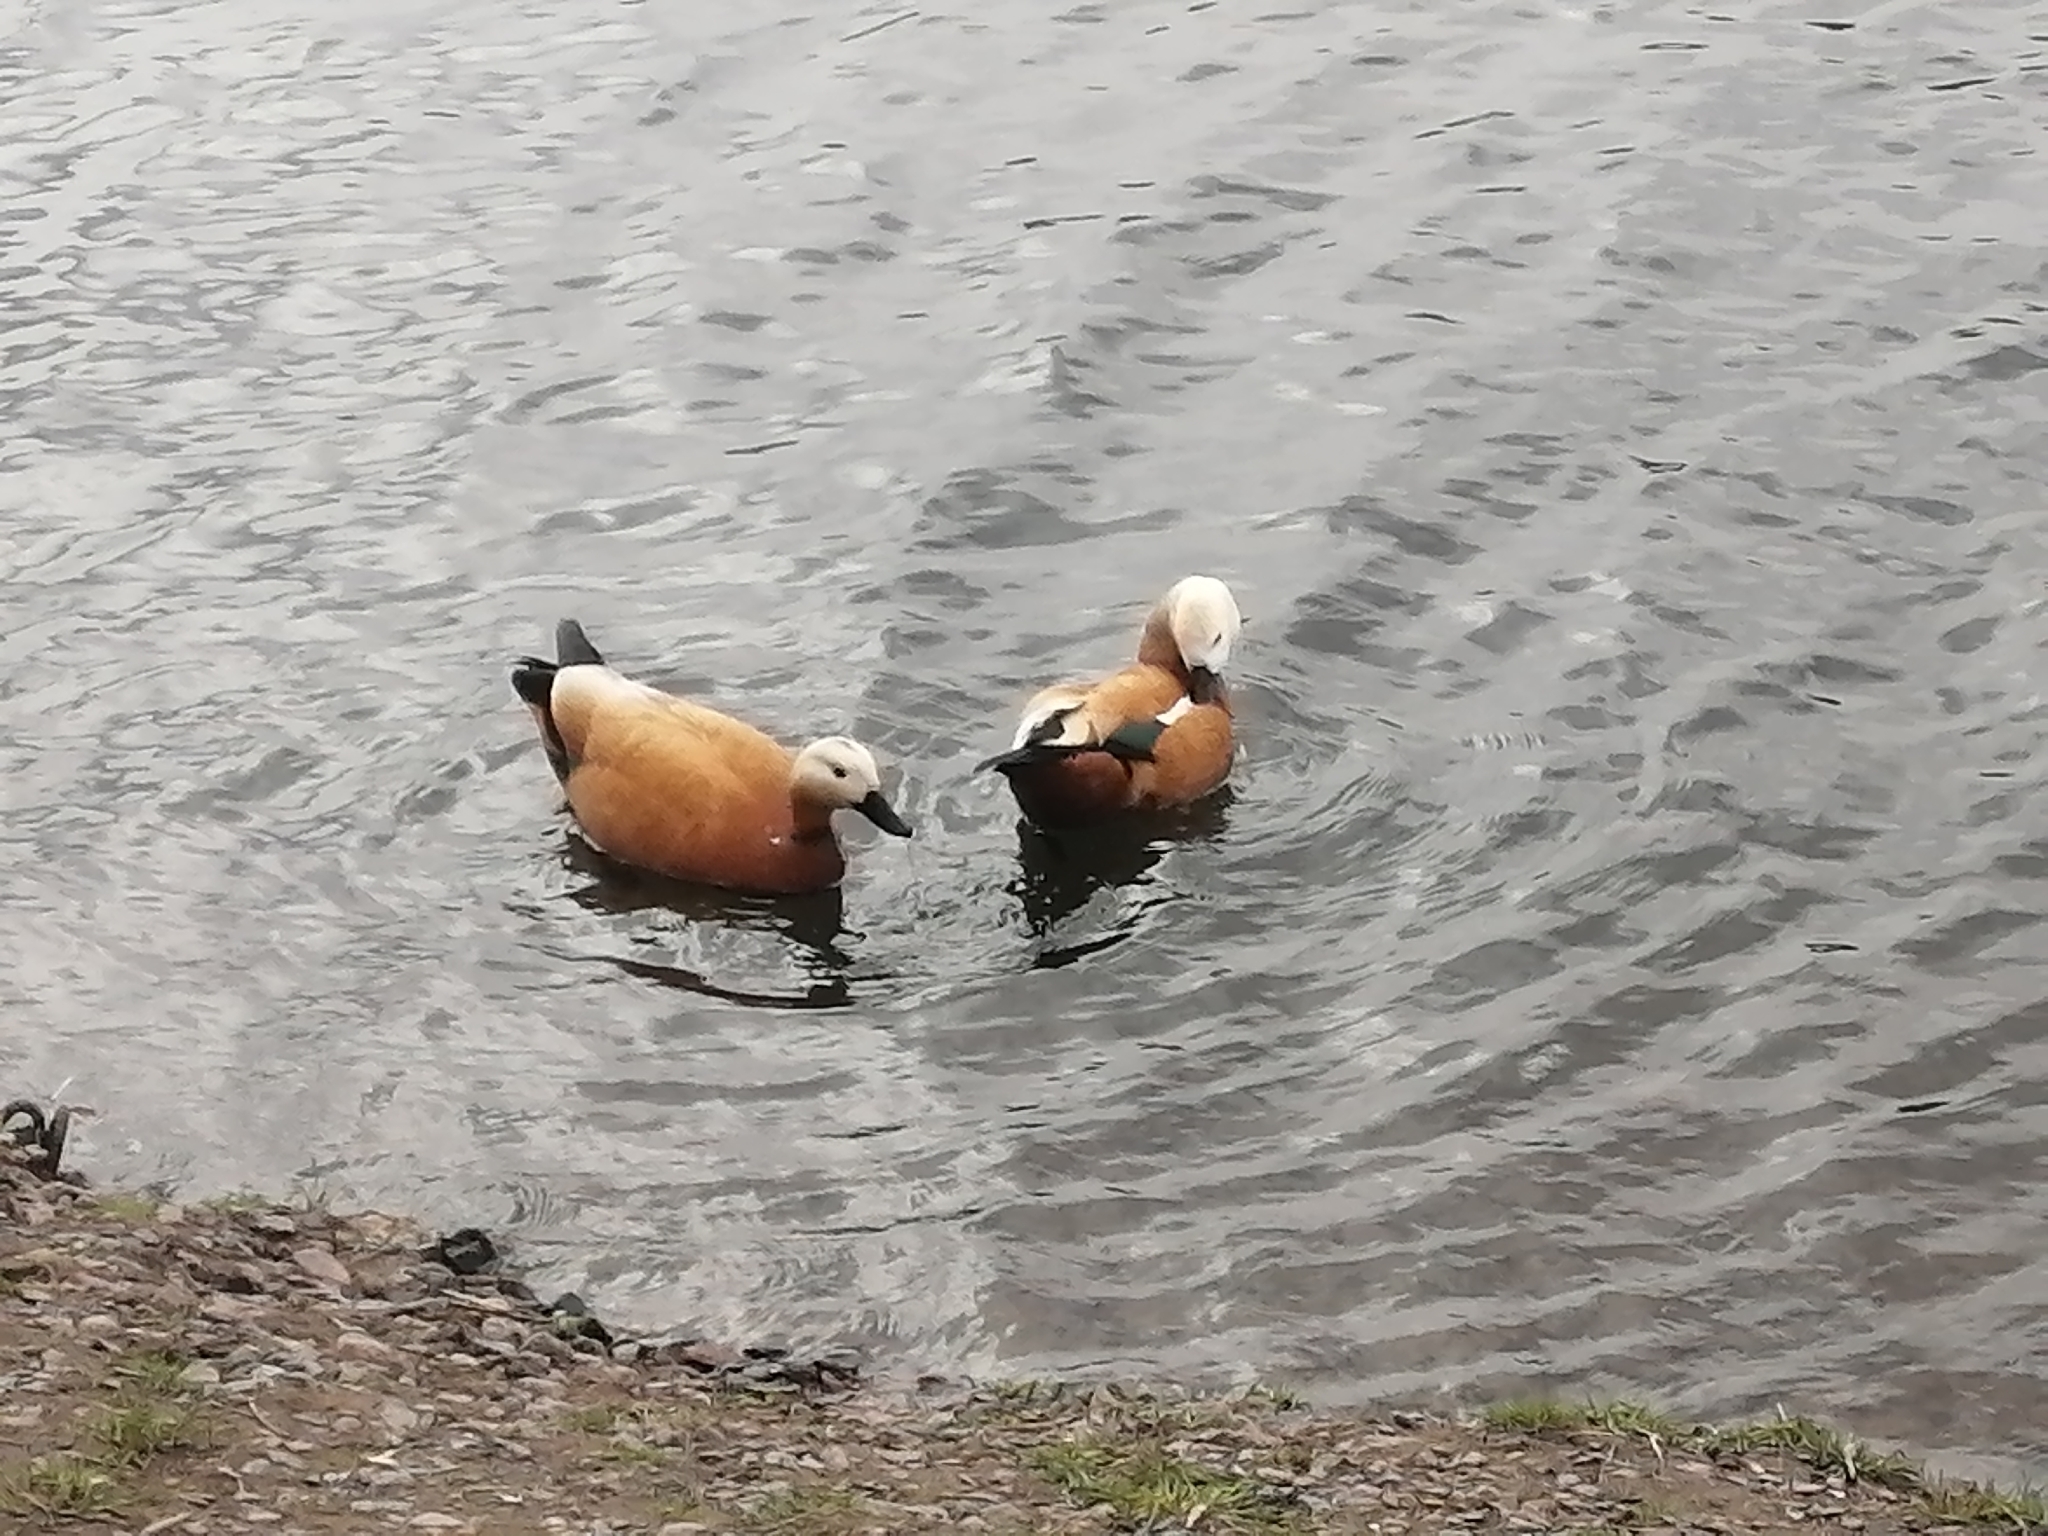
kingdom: Animalia
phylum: Chordata
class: Aves
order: Anseriformes
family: Anatidae
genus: Tadorna
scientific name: Tadorna ferruginea
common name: Ruddy shelduck
